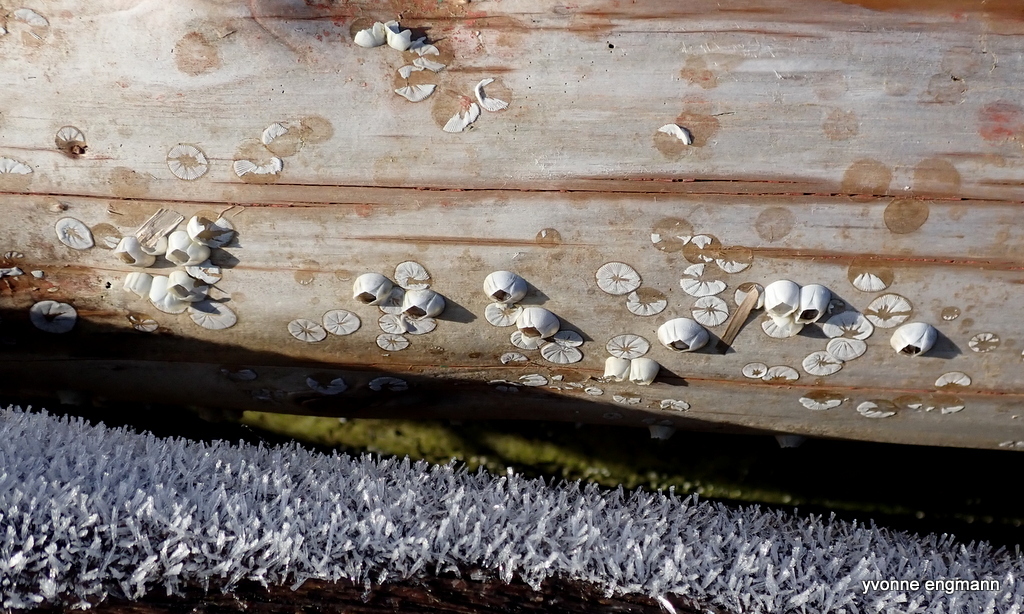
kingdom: Animalia
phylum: Arthropoda
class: Maxillopoda
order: Sessilia
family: Balanidae
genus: Amphibalanus
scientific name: Amphibalanus improvisus
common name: Bay barnacle
